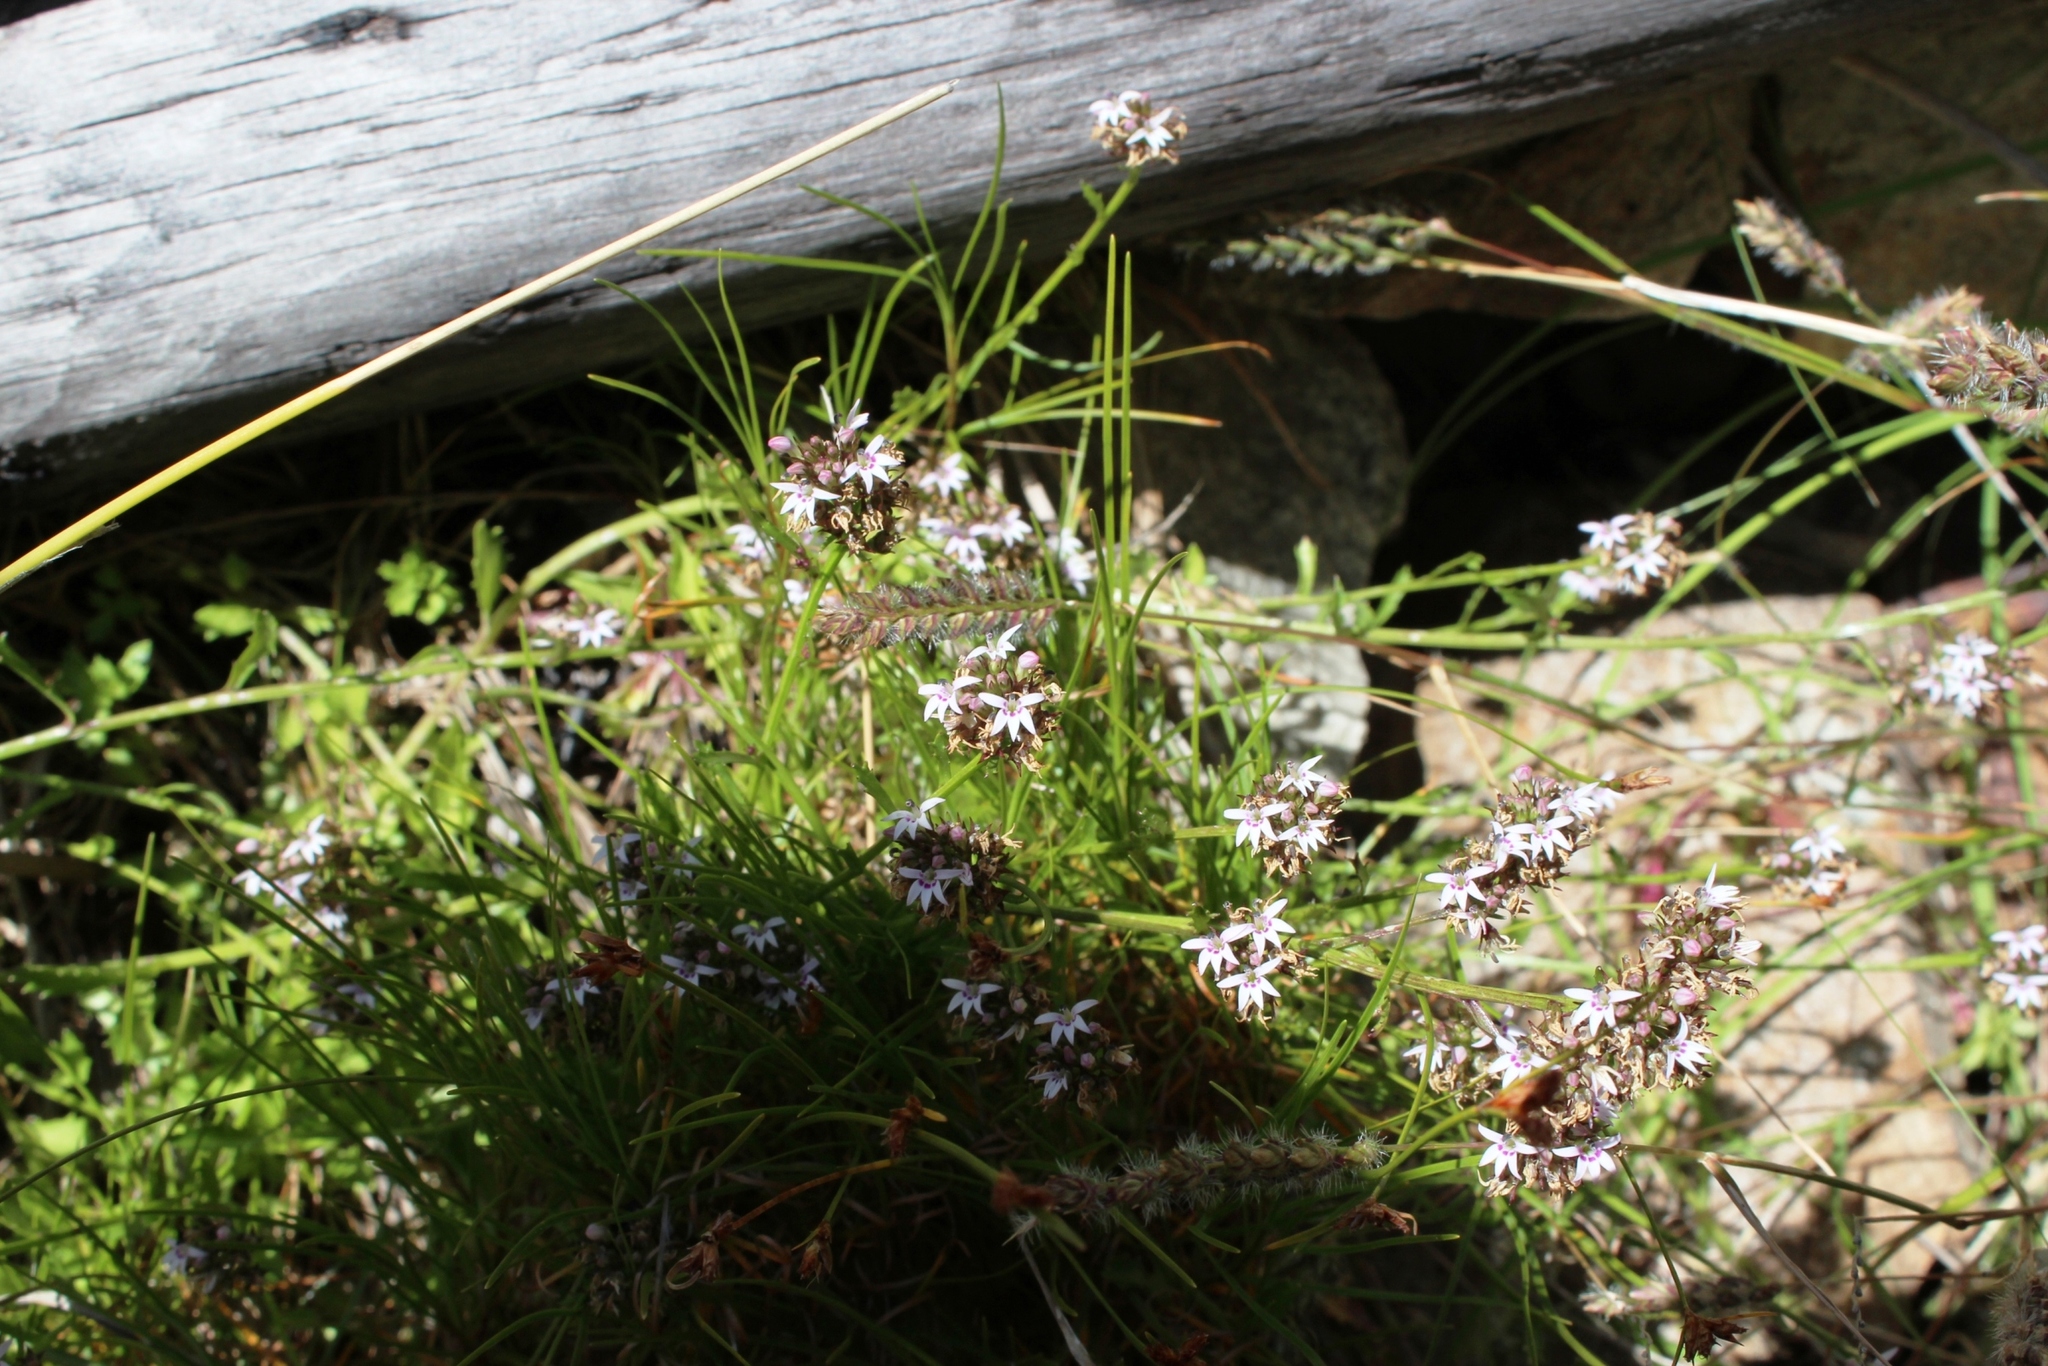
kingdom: Plantae
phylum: Tracheophyta
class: Magnoliopsida
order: Asterales
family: Campanulaceae
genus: Lobelia
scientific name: Lobelia jasionoides
